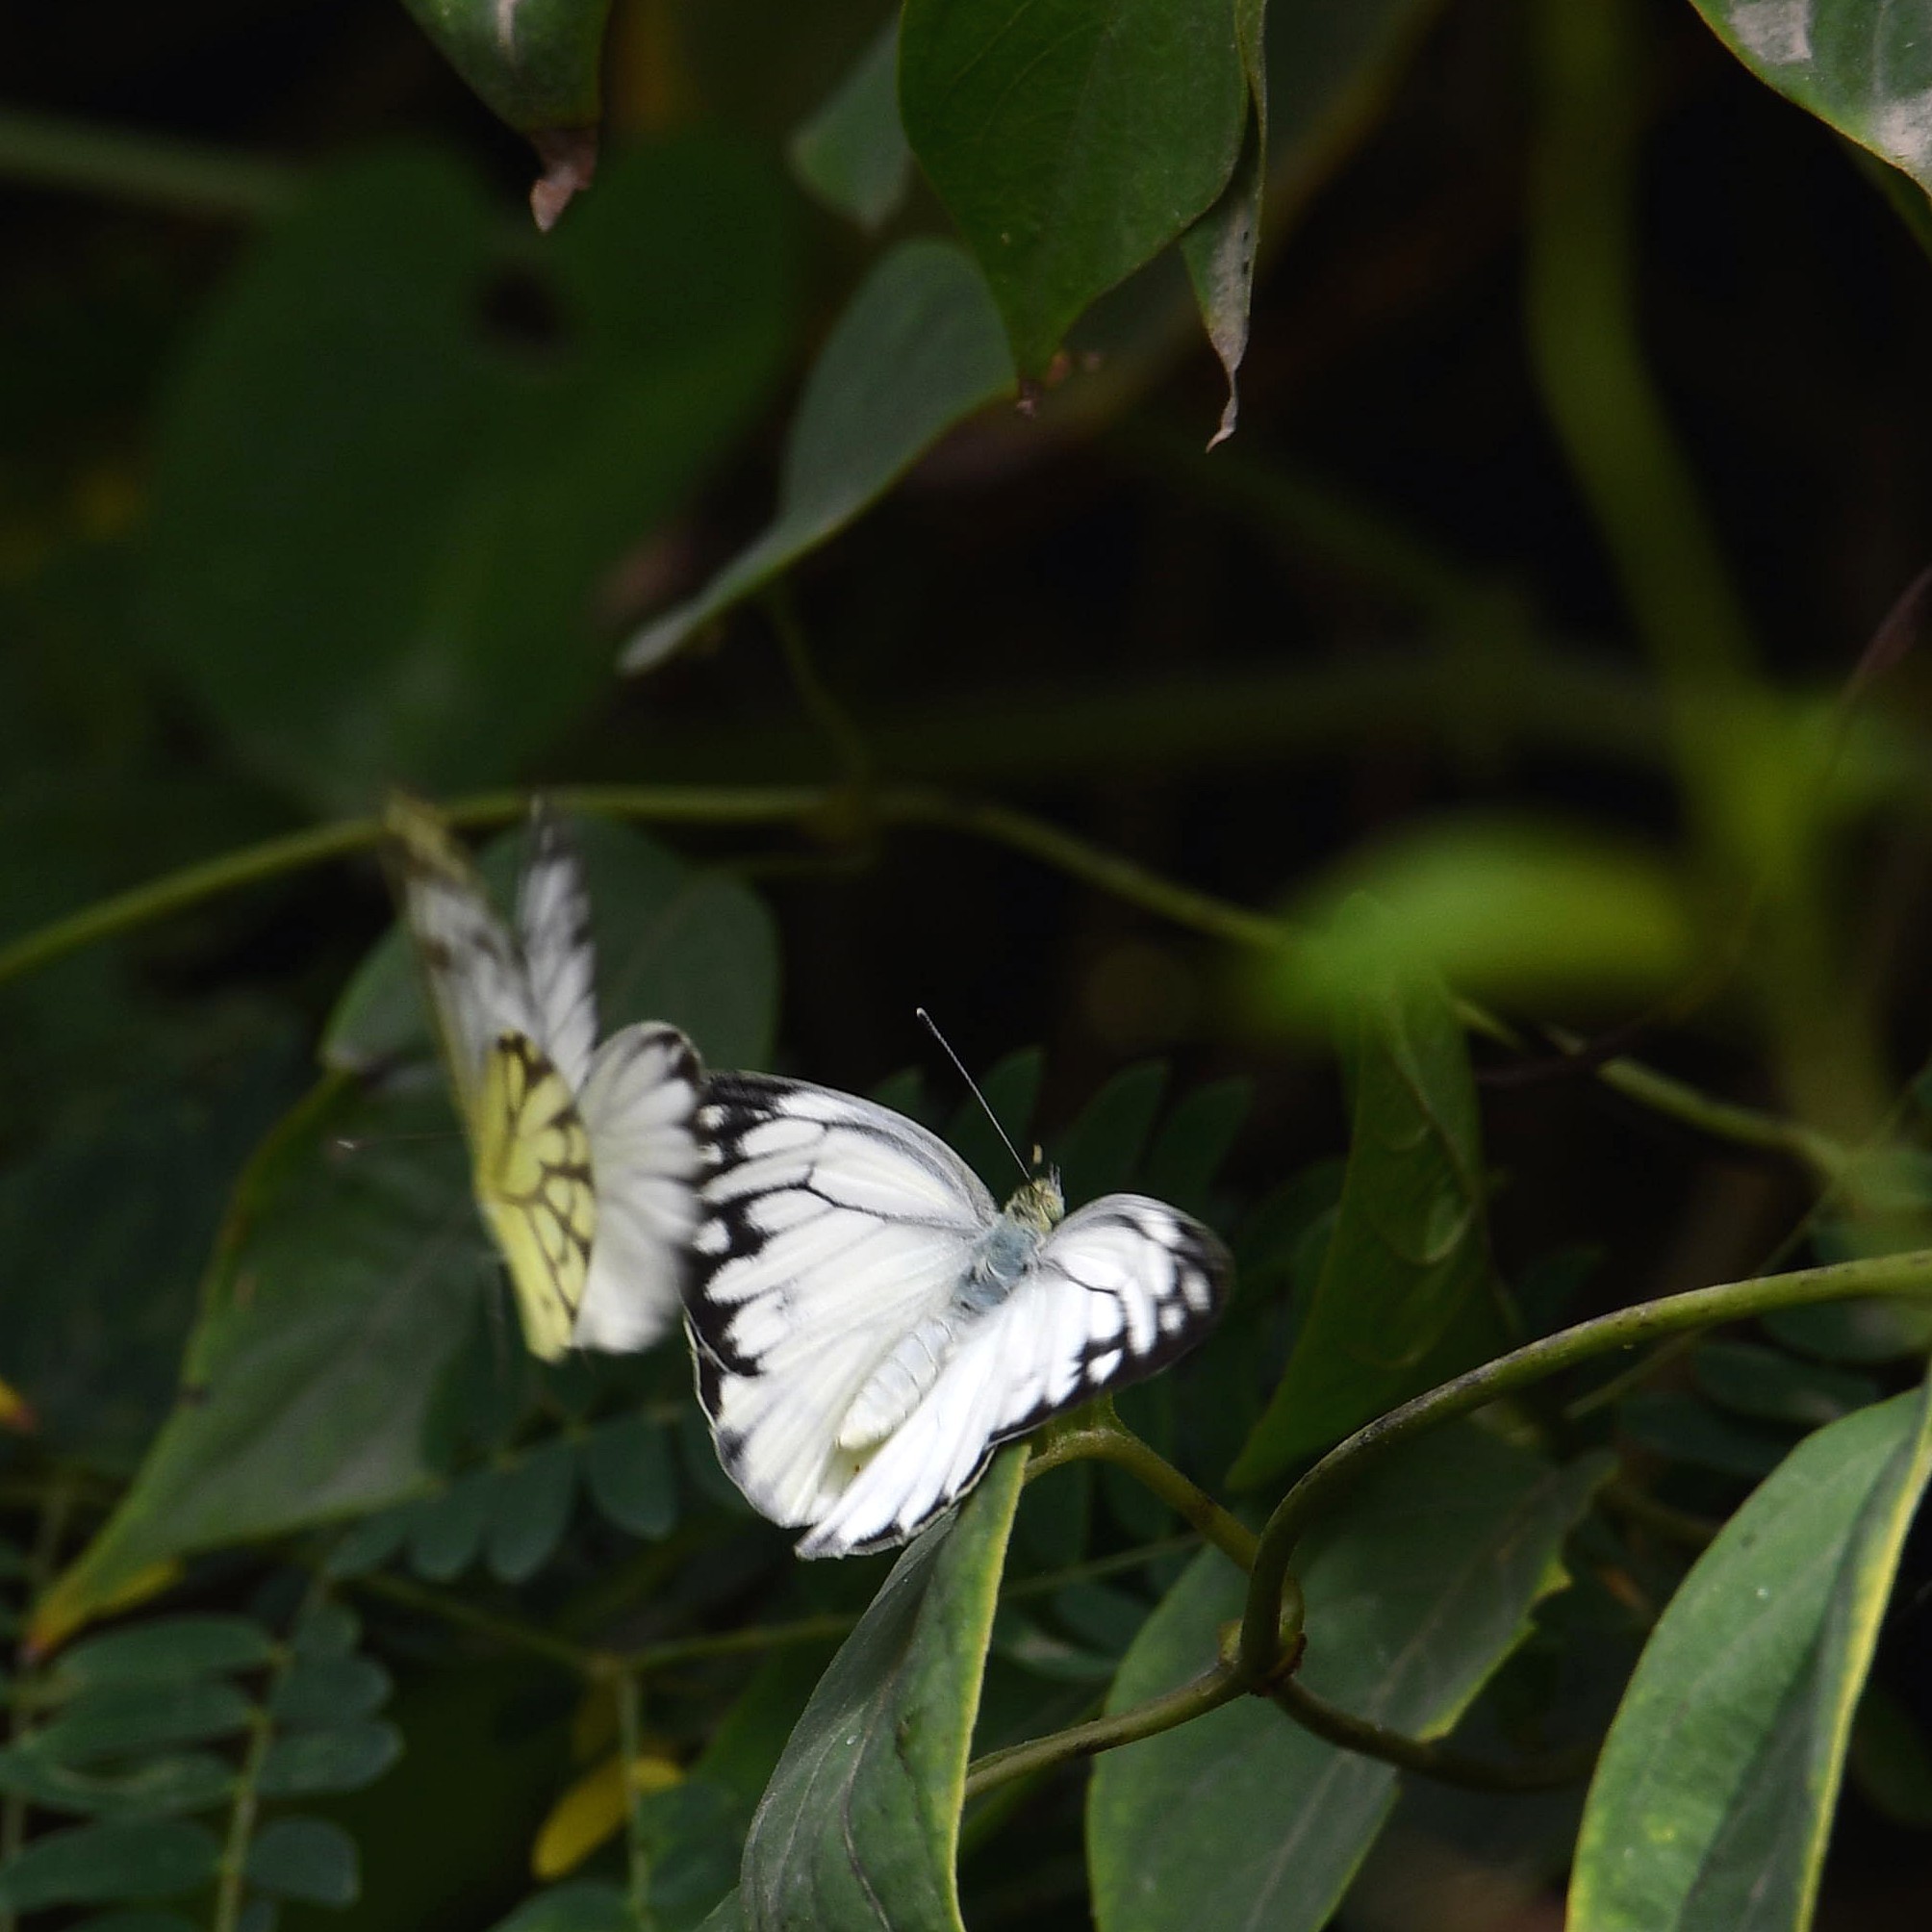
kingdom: Animalia
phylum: Arthropoda
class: Insecta
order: Lepidoptera
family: Pieridae
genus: Cepora
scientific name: Cepora nerissa
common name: Common gull
